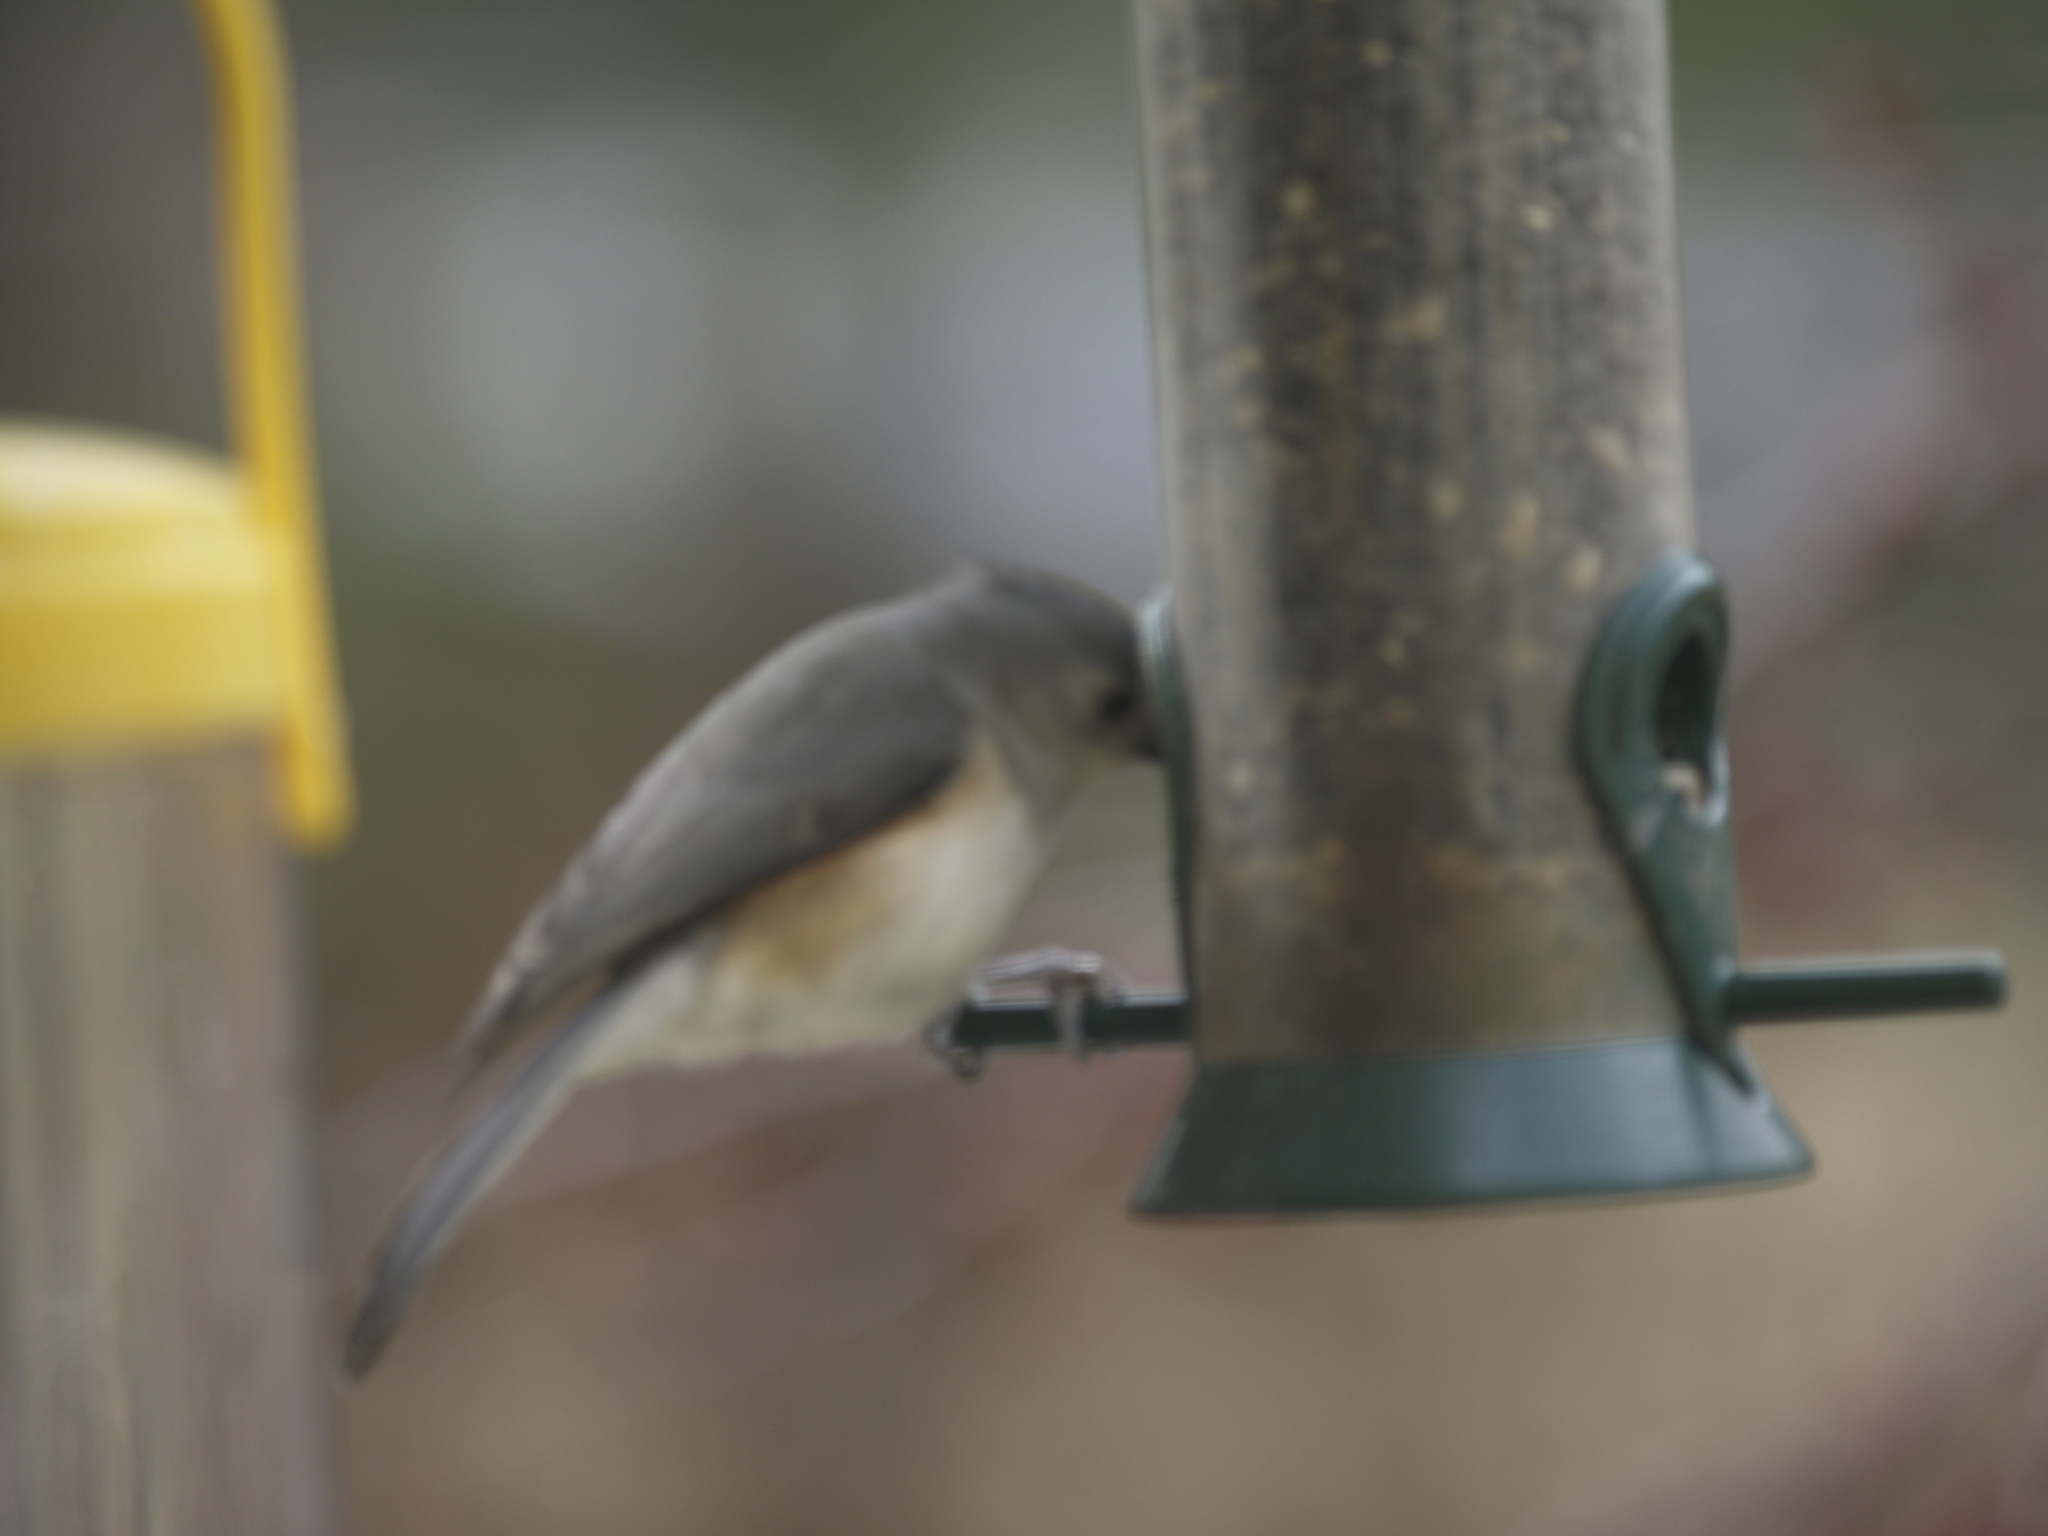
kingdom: Animalia
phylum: Chordata
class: Aves
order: Passeriformes
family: Paridae
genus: Baeolophus
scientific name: Baeolophus bicolor
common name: Tufted titmouse
